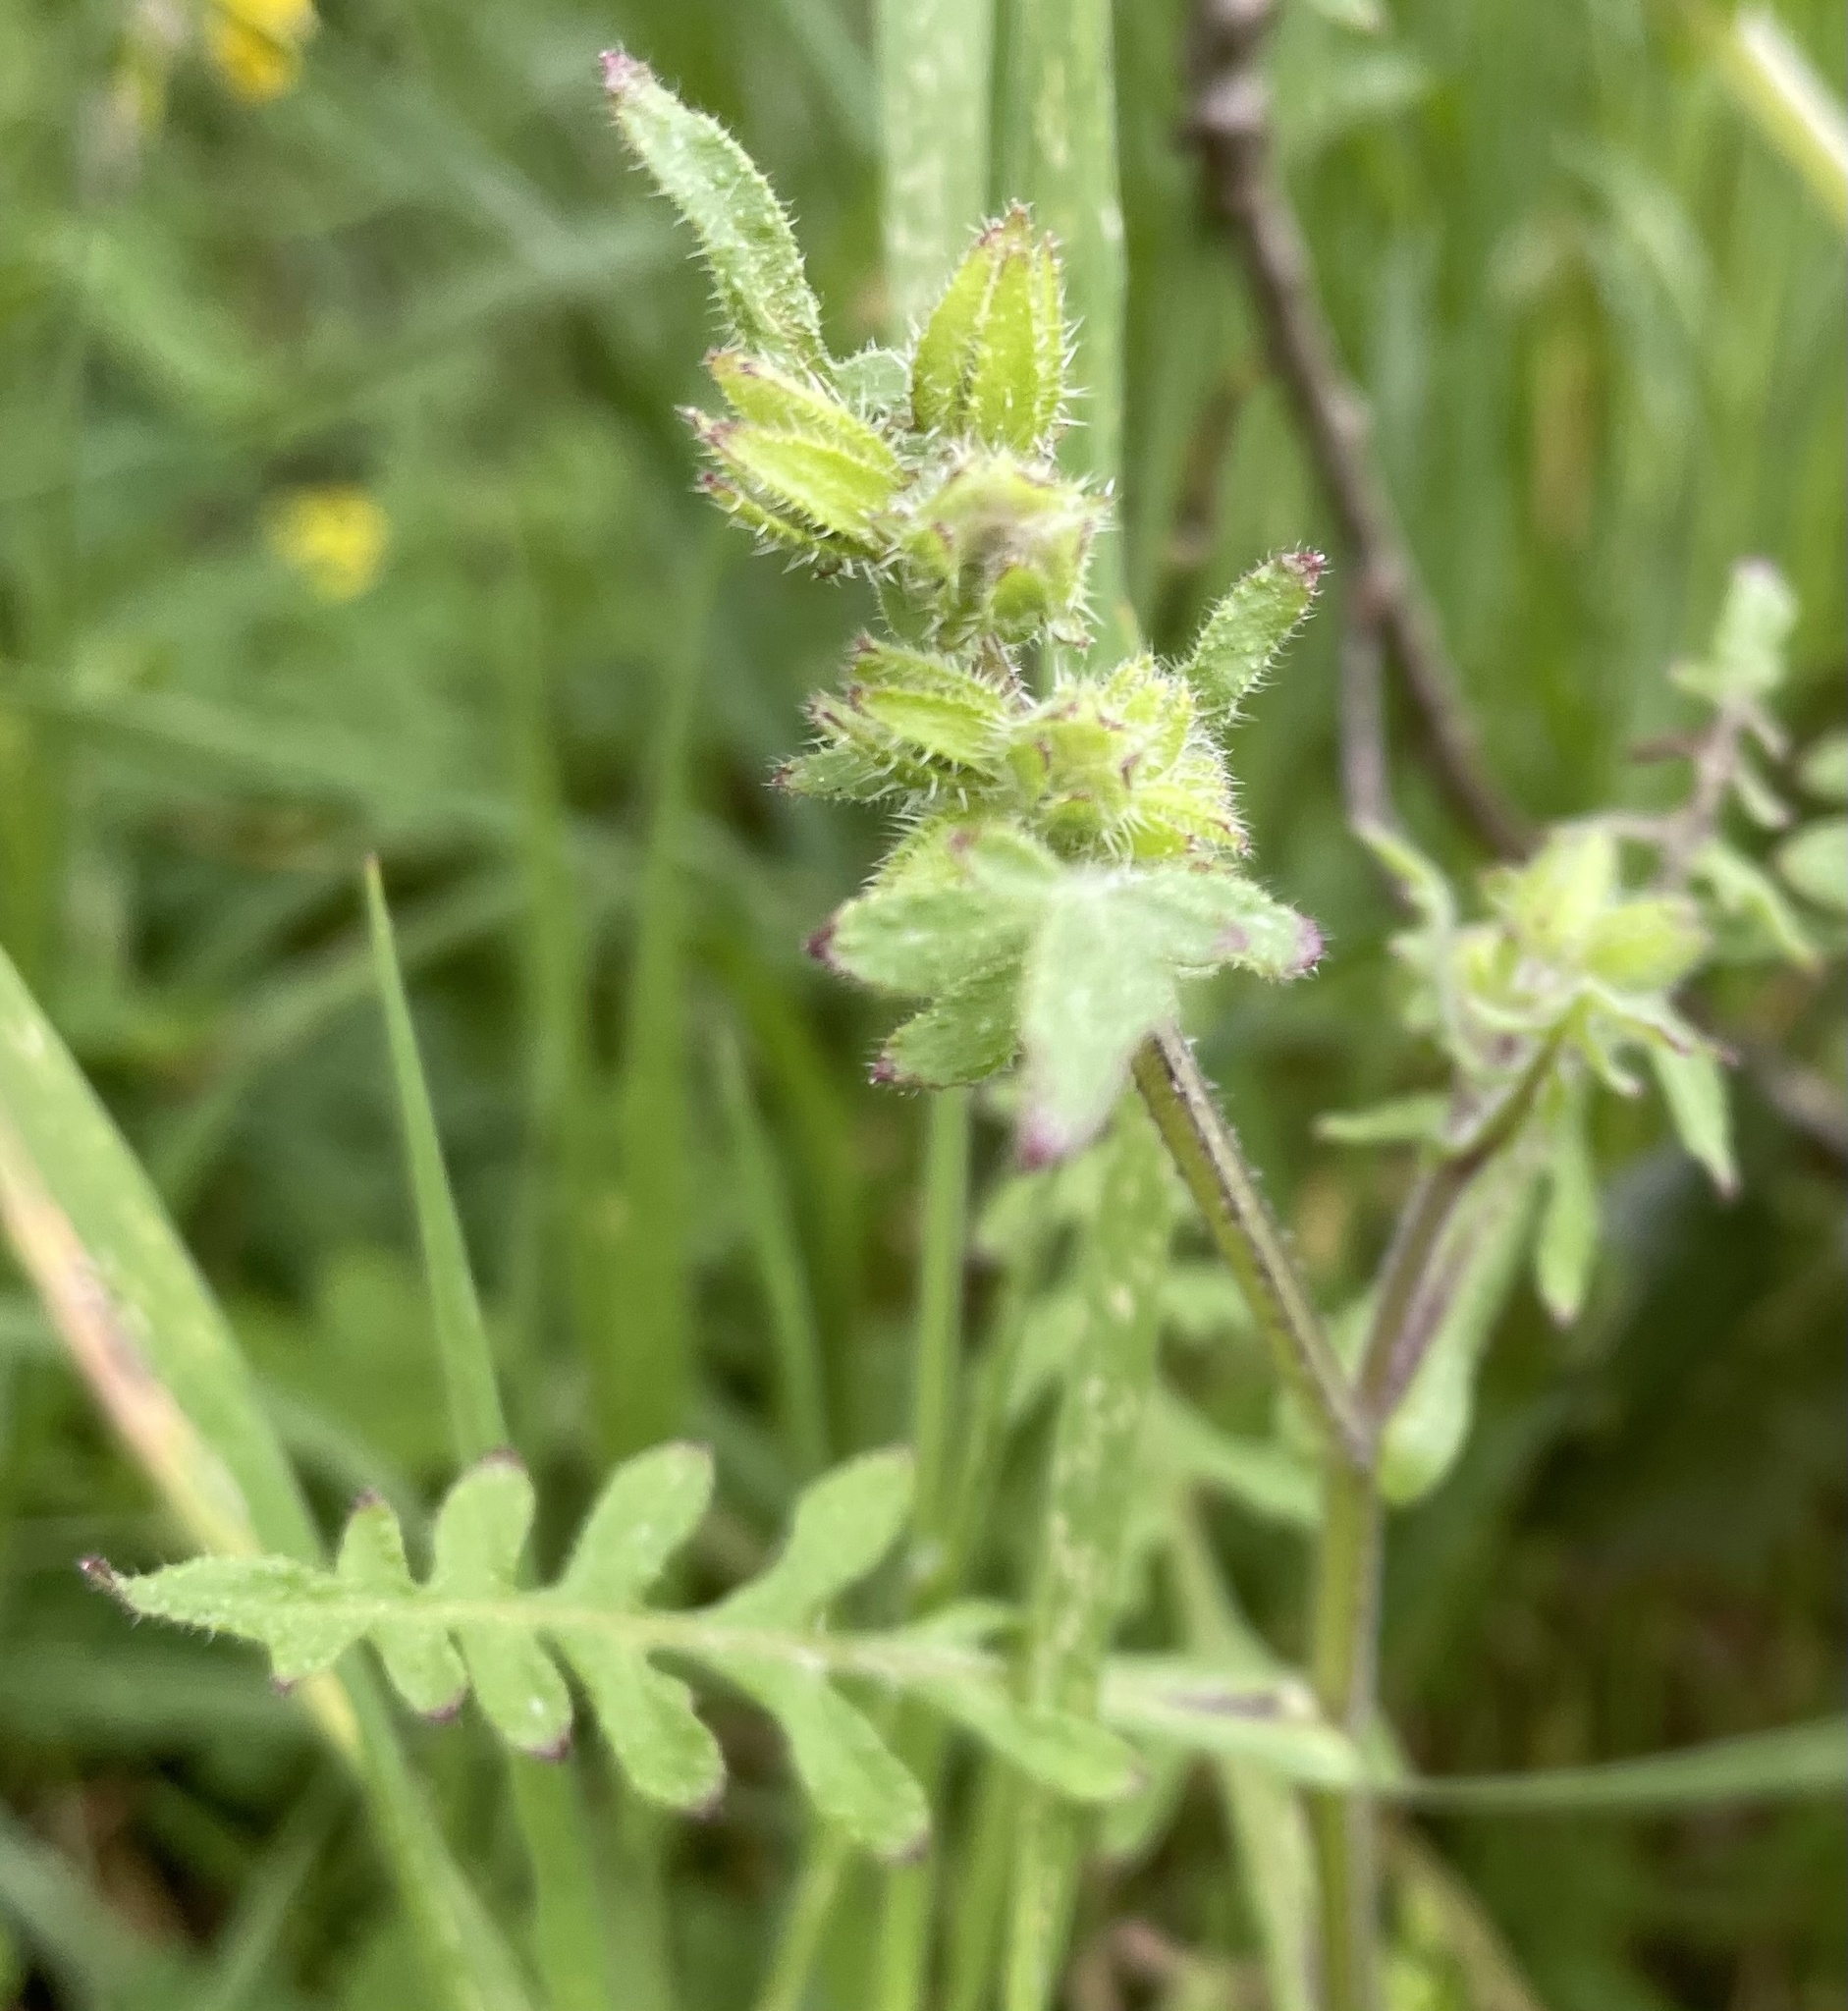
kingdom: Plantae
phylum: Tracheophyta
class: Magnoliopsida
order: Boraginales
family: Hydrophyllaceae
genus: Pholistoma
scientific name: Pholistoma auritum
